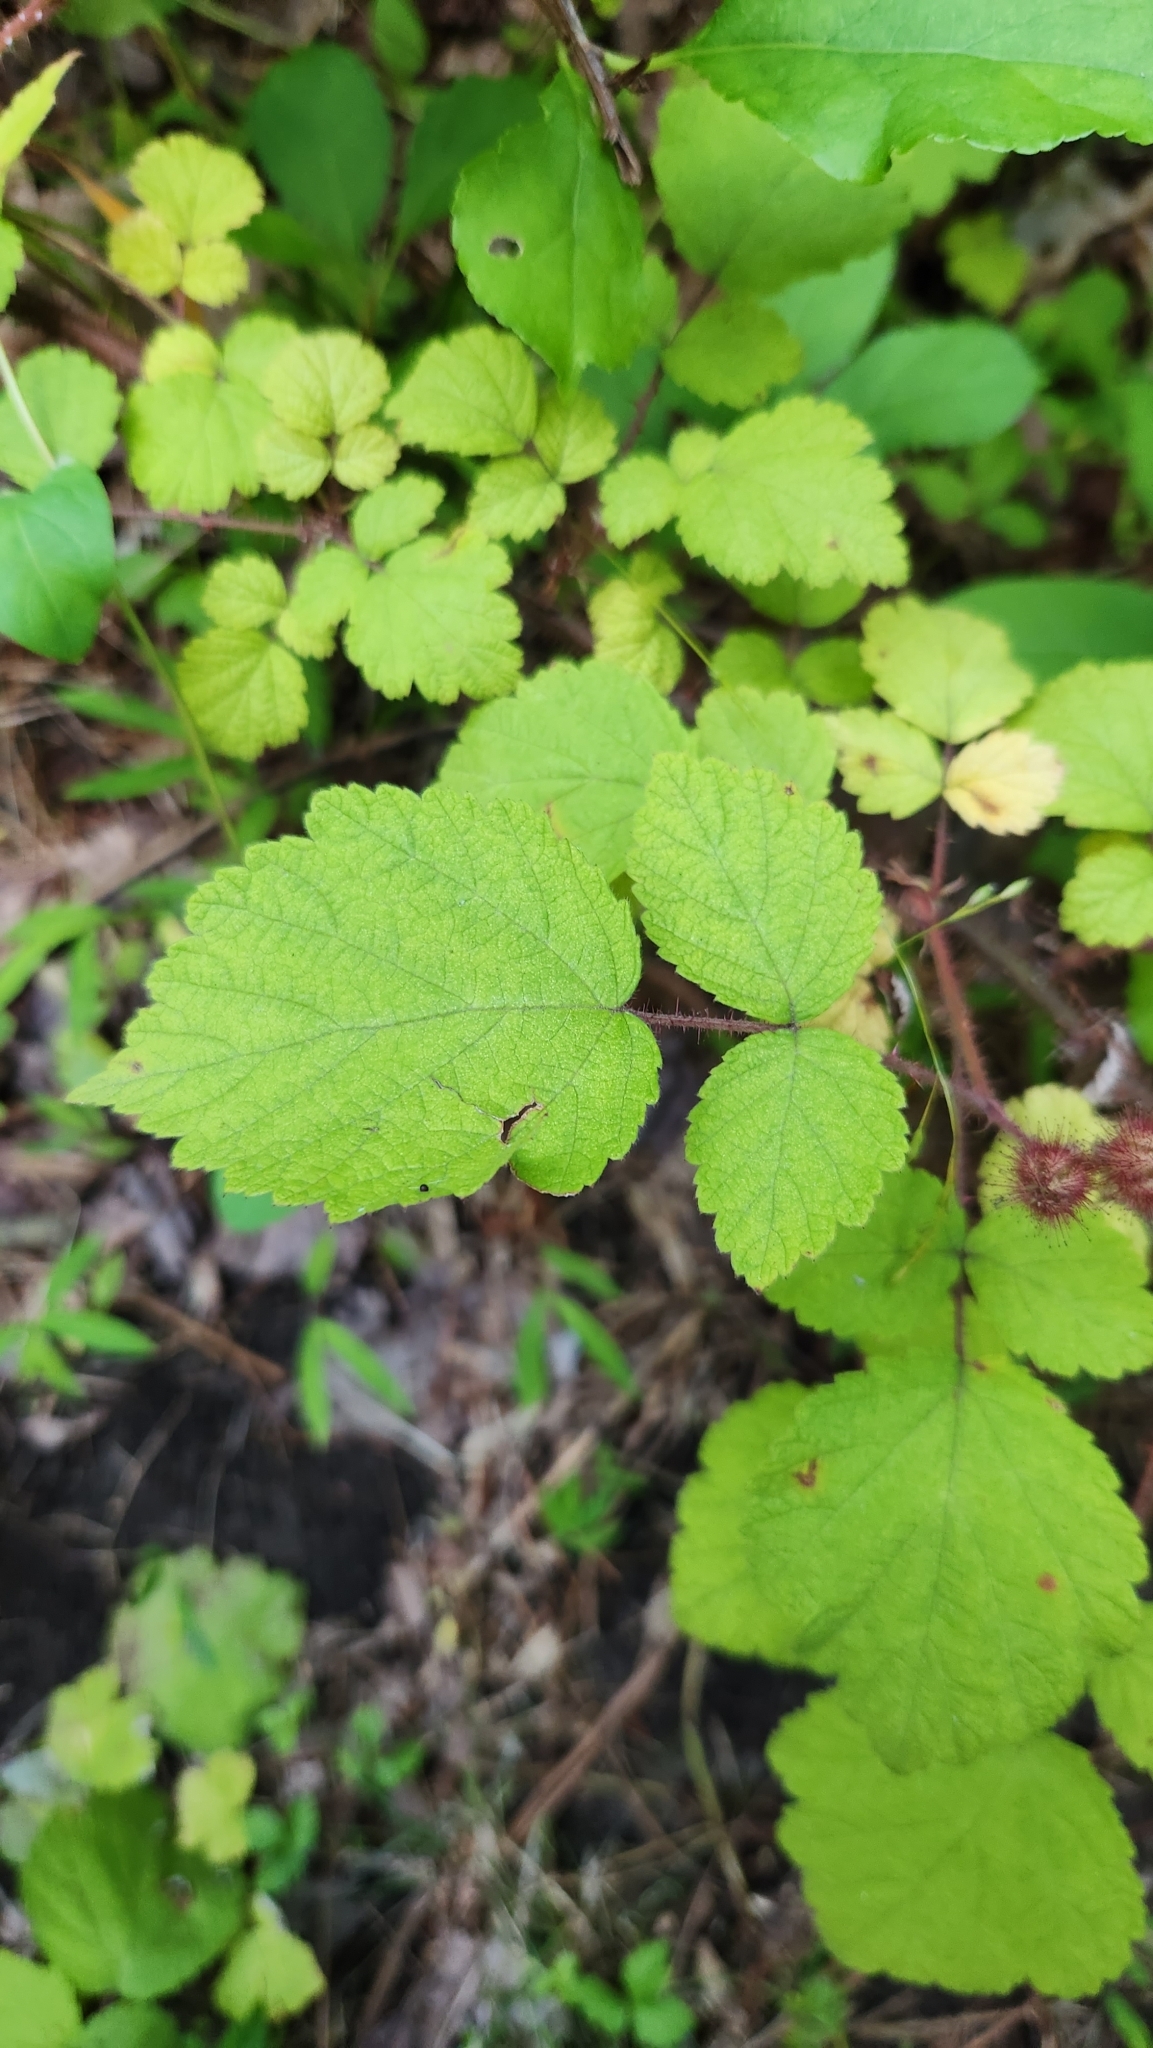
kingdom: Plantae
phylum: Tracheophyta
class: Magnoliopsida
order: Rosales
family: Rosaceae
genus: Rubus
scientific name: Rubus phoenicolasius
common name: Japanese wineberry
